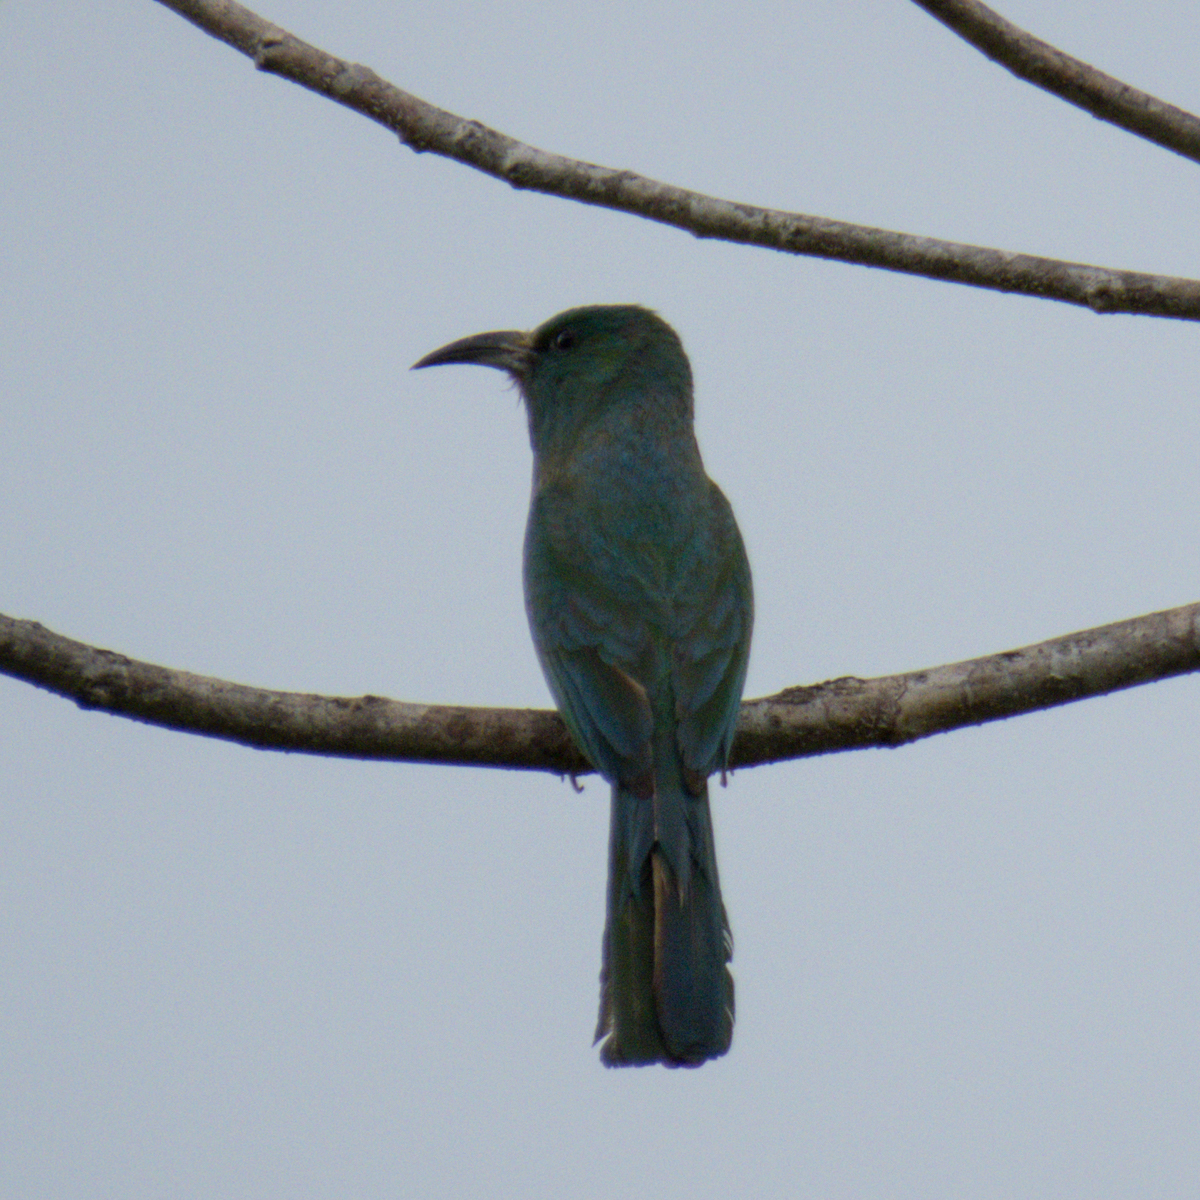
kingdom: Animalia
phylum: Chordata
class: Aves
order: Coraciiformes
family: Meropidae
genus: Nyctyornis
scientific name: Nyctyornis athertoni
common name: Blue-bearded bee-eater
